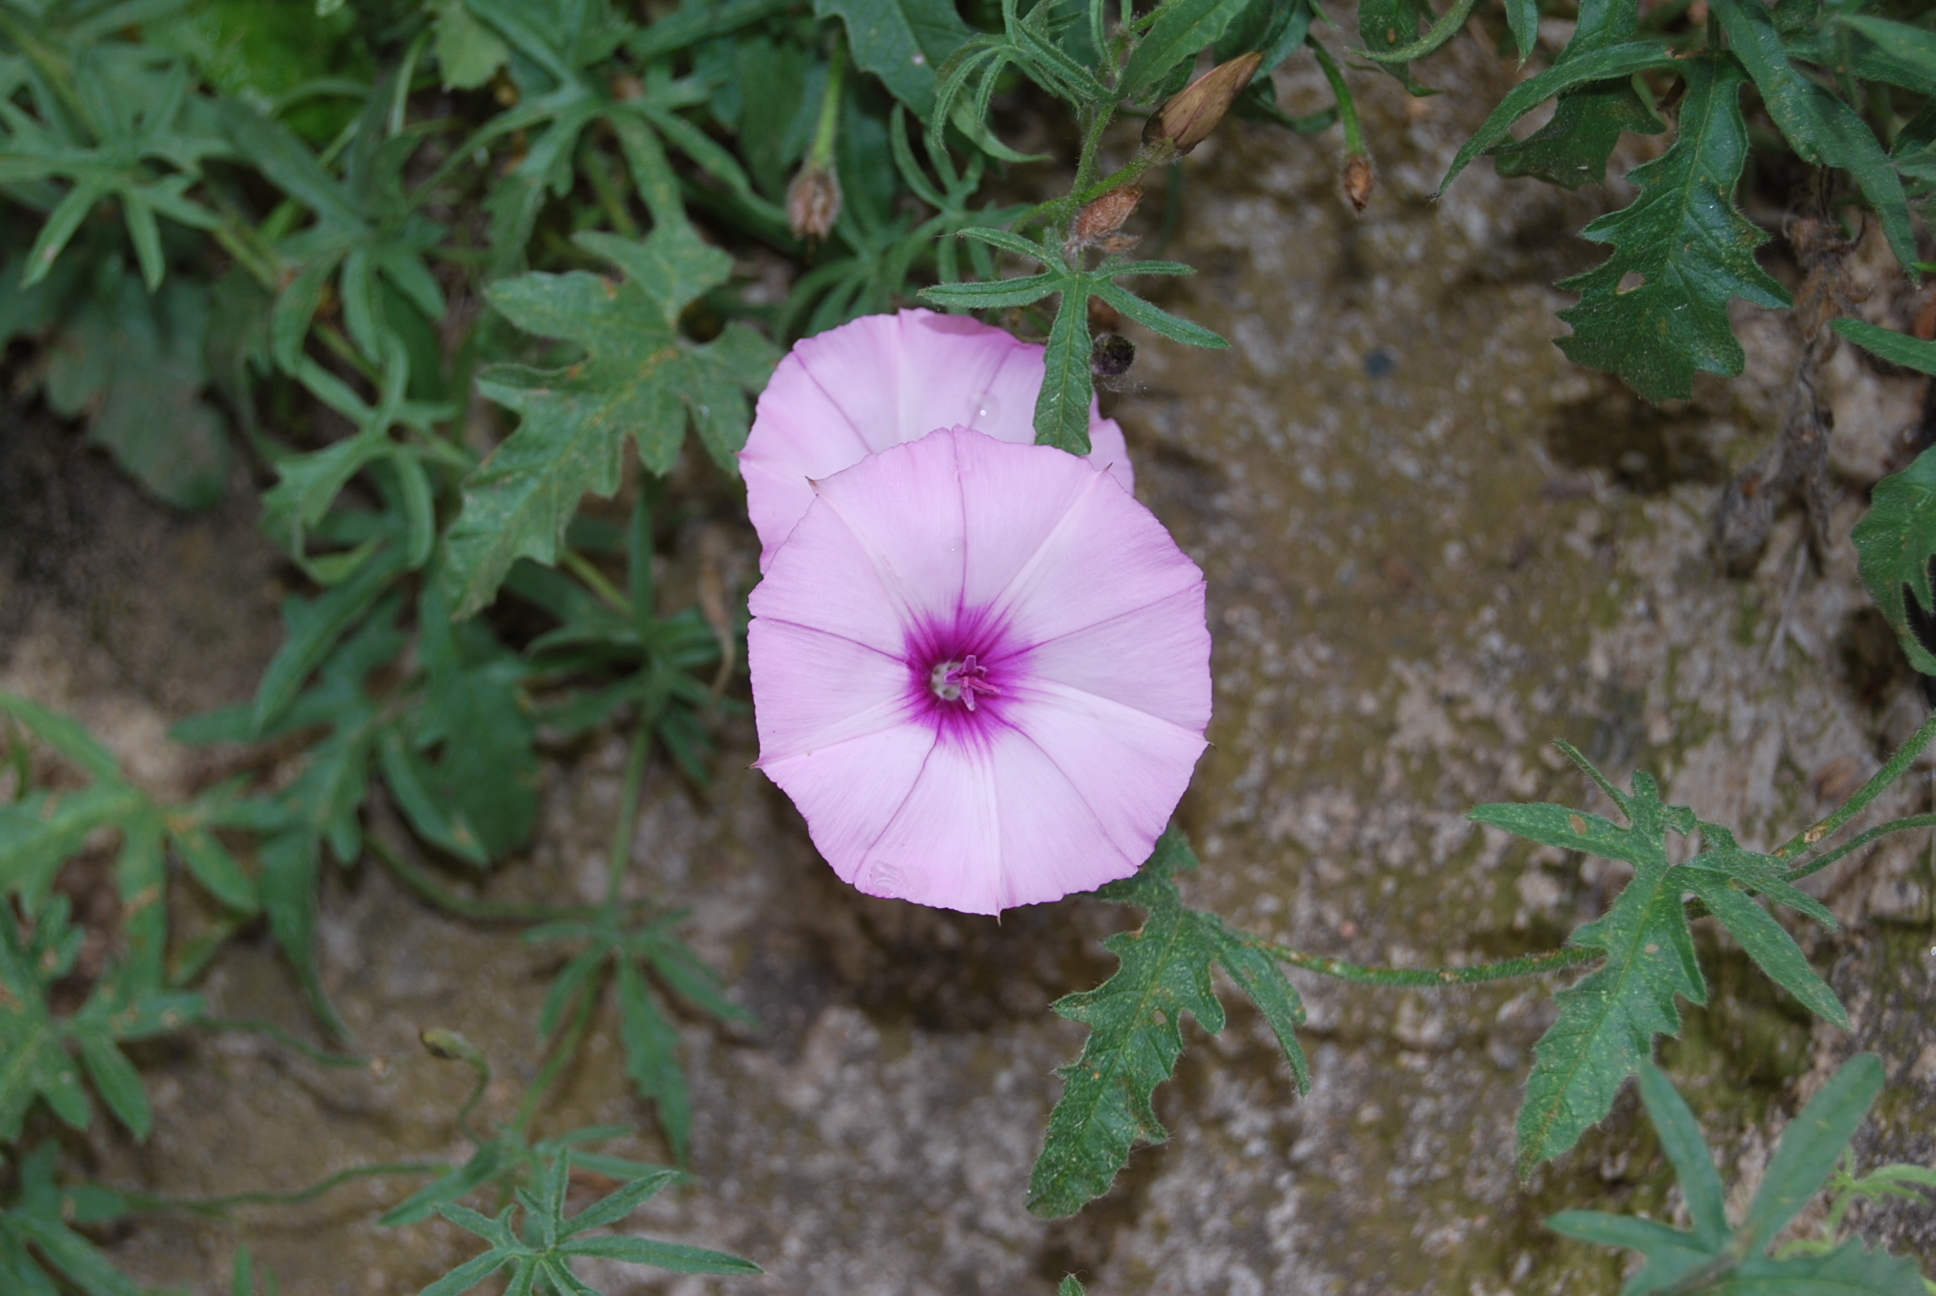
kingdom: Plantae
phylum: Tracheophyta
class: Magnoliopsida
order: Solanales
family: Convolvulaceae
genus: Convolvulus
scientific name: Convolvulus althaeoides
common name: Mallow bindweed
